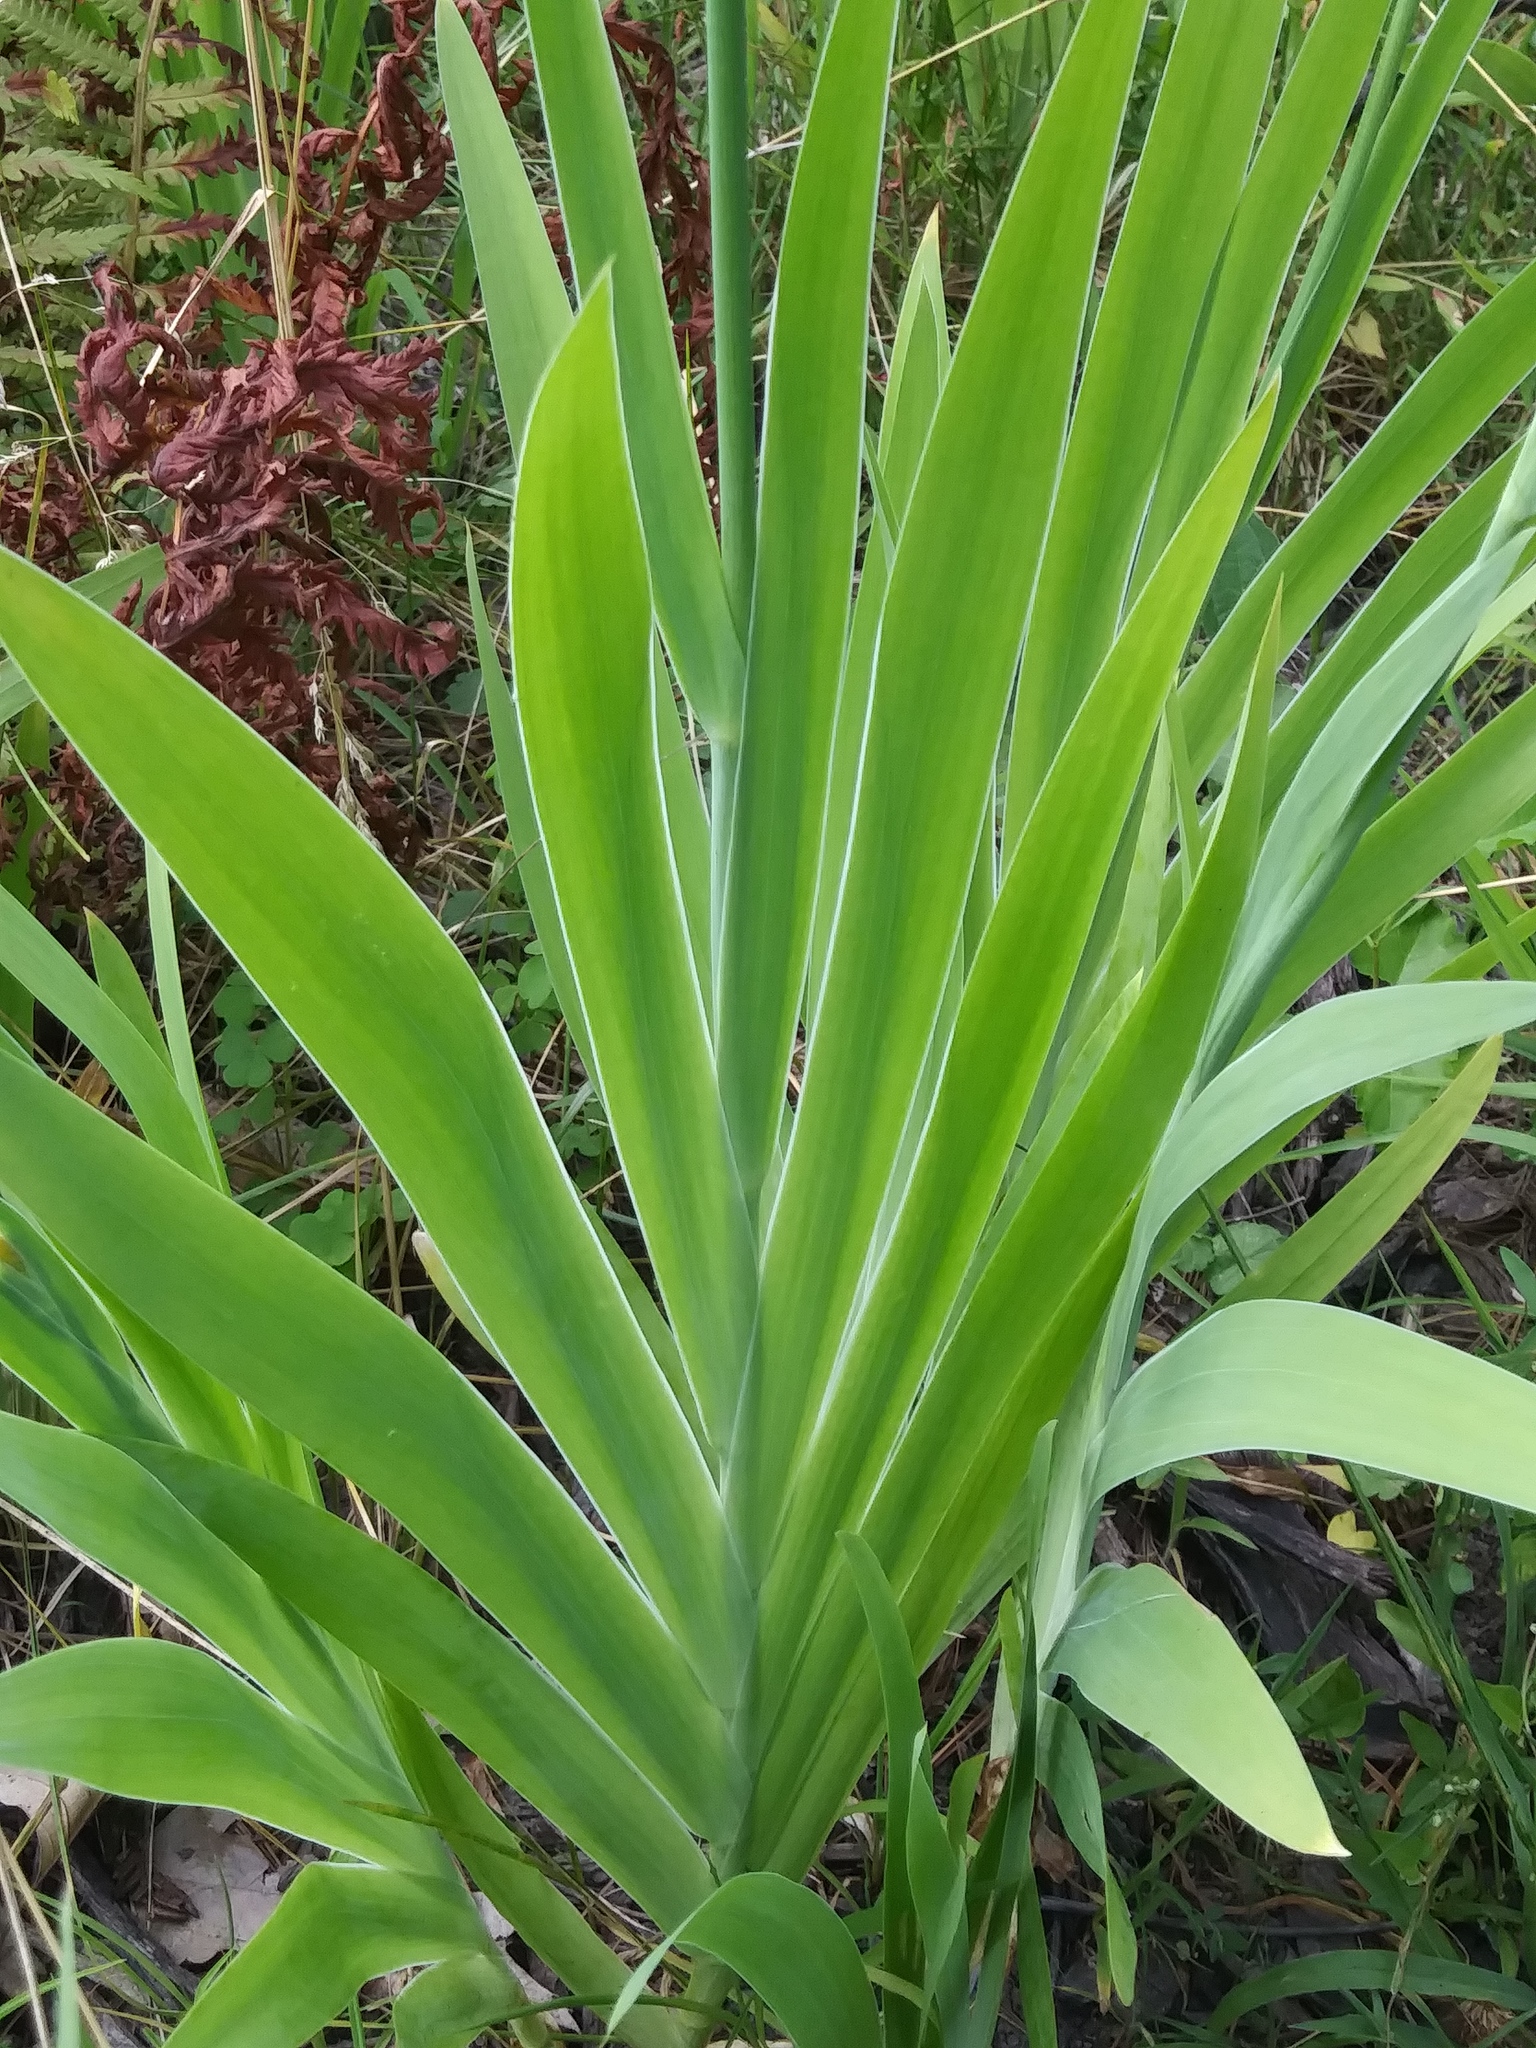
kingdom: Plantae
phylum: Tracheophyta
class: Liliopsida
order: Asparagales
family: Iridaceae
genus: Iris
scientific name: Iris domestica
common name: Belamcanda
